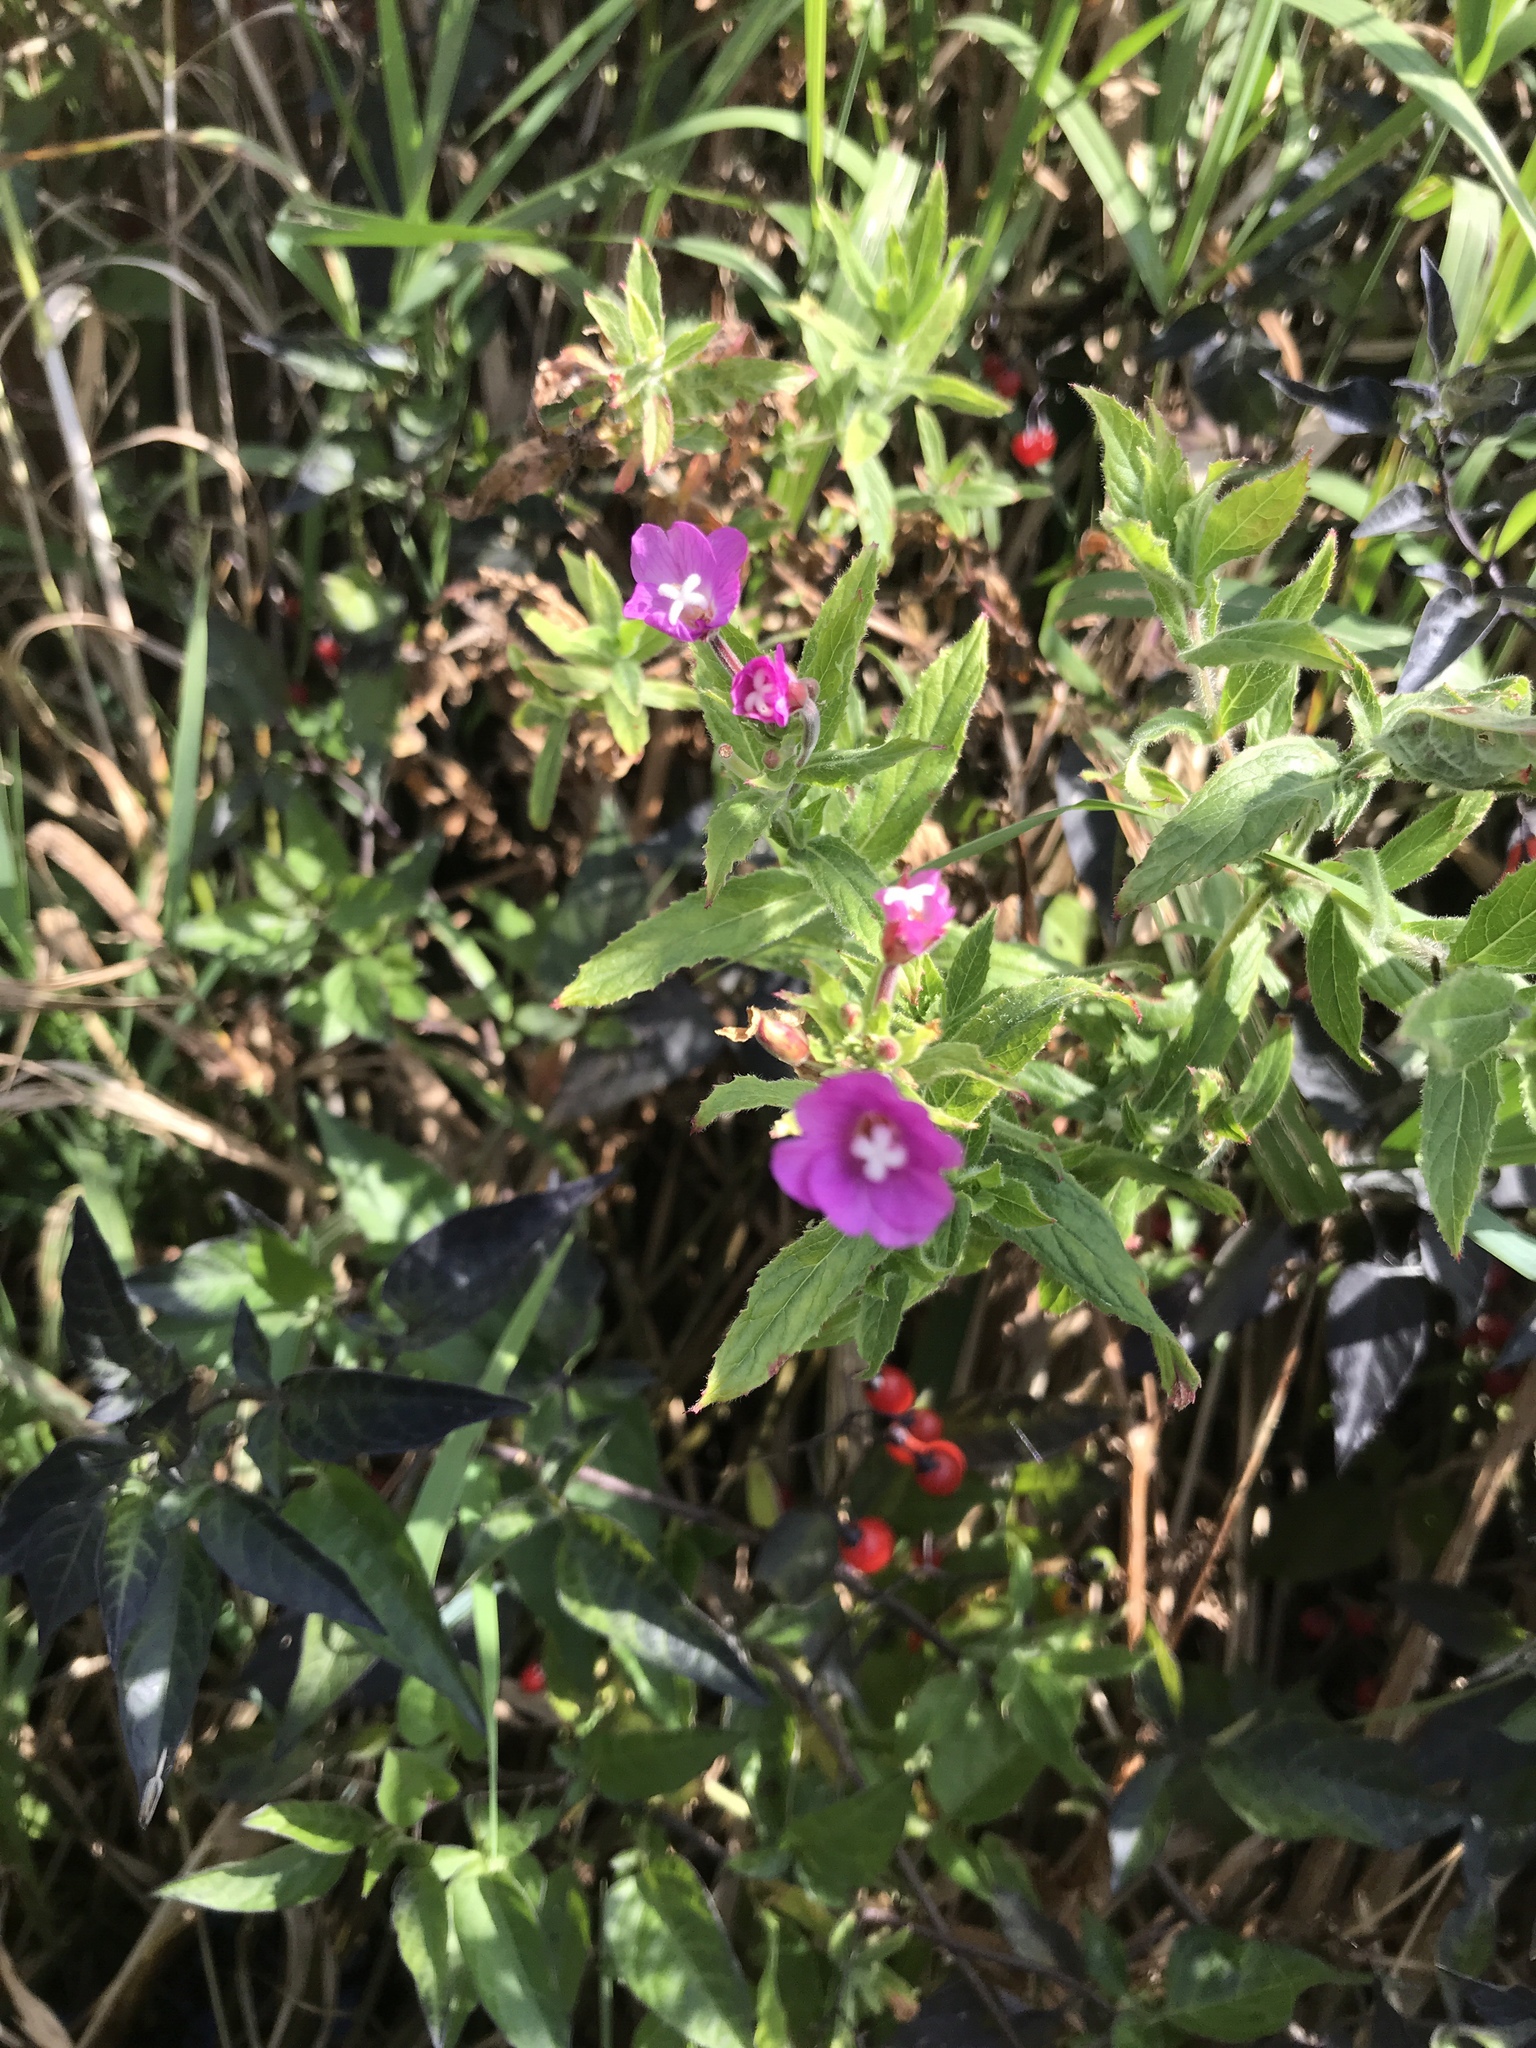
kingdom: Plantae
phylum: Tracheophyta
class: Magnoliopsida
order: Myrtales
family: Onagraceae
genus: Epilobium
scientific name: Epilobium hirsutum
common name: Great willowherb
